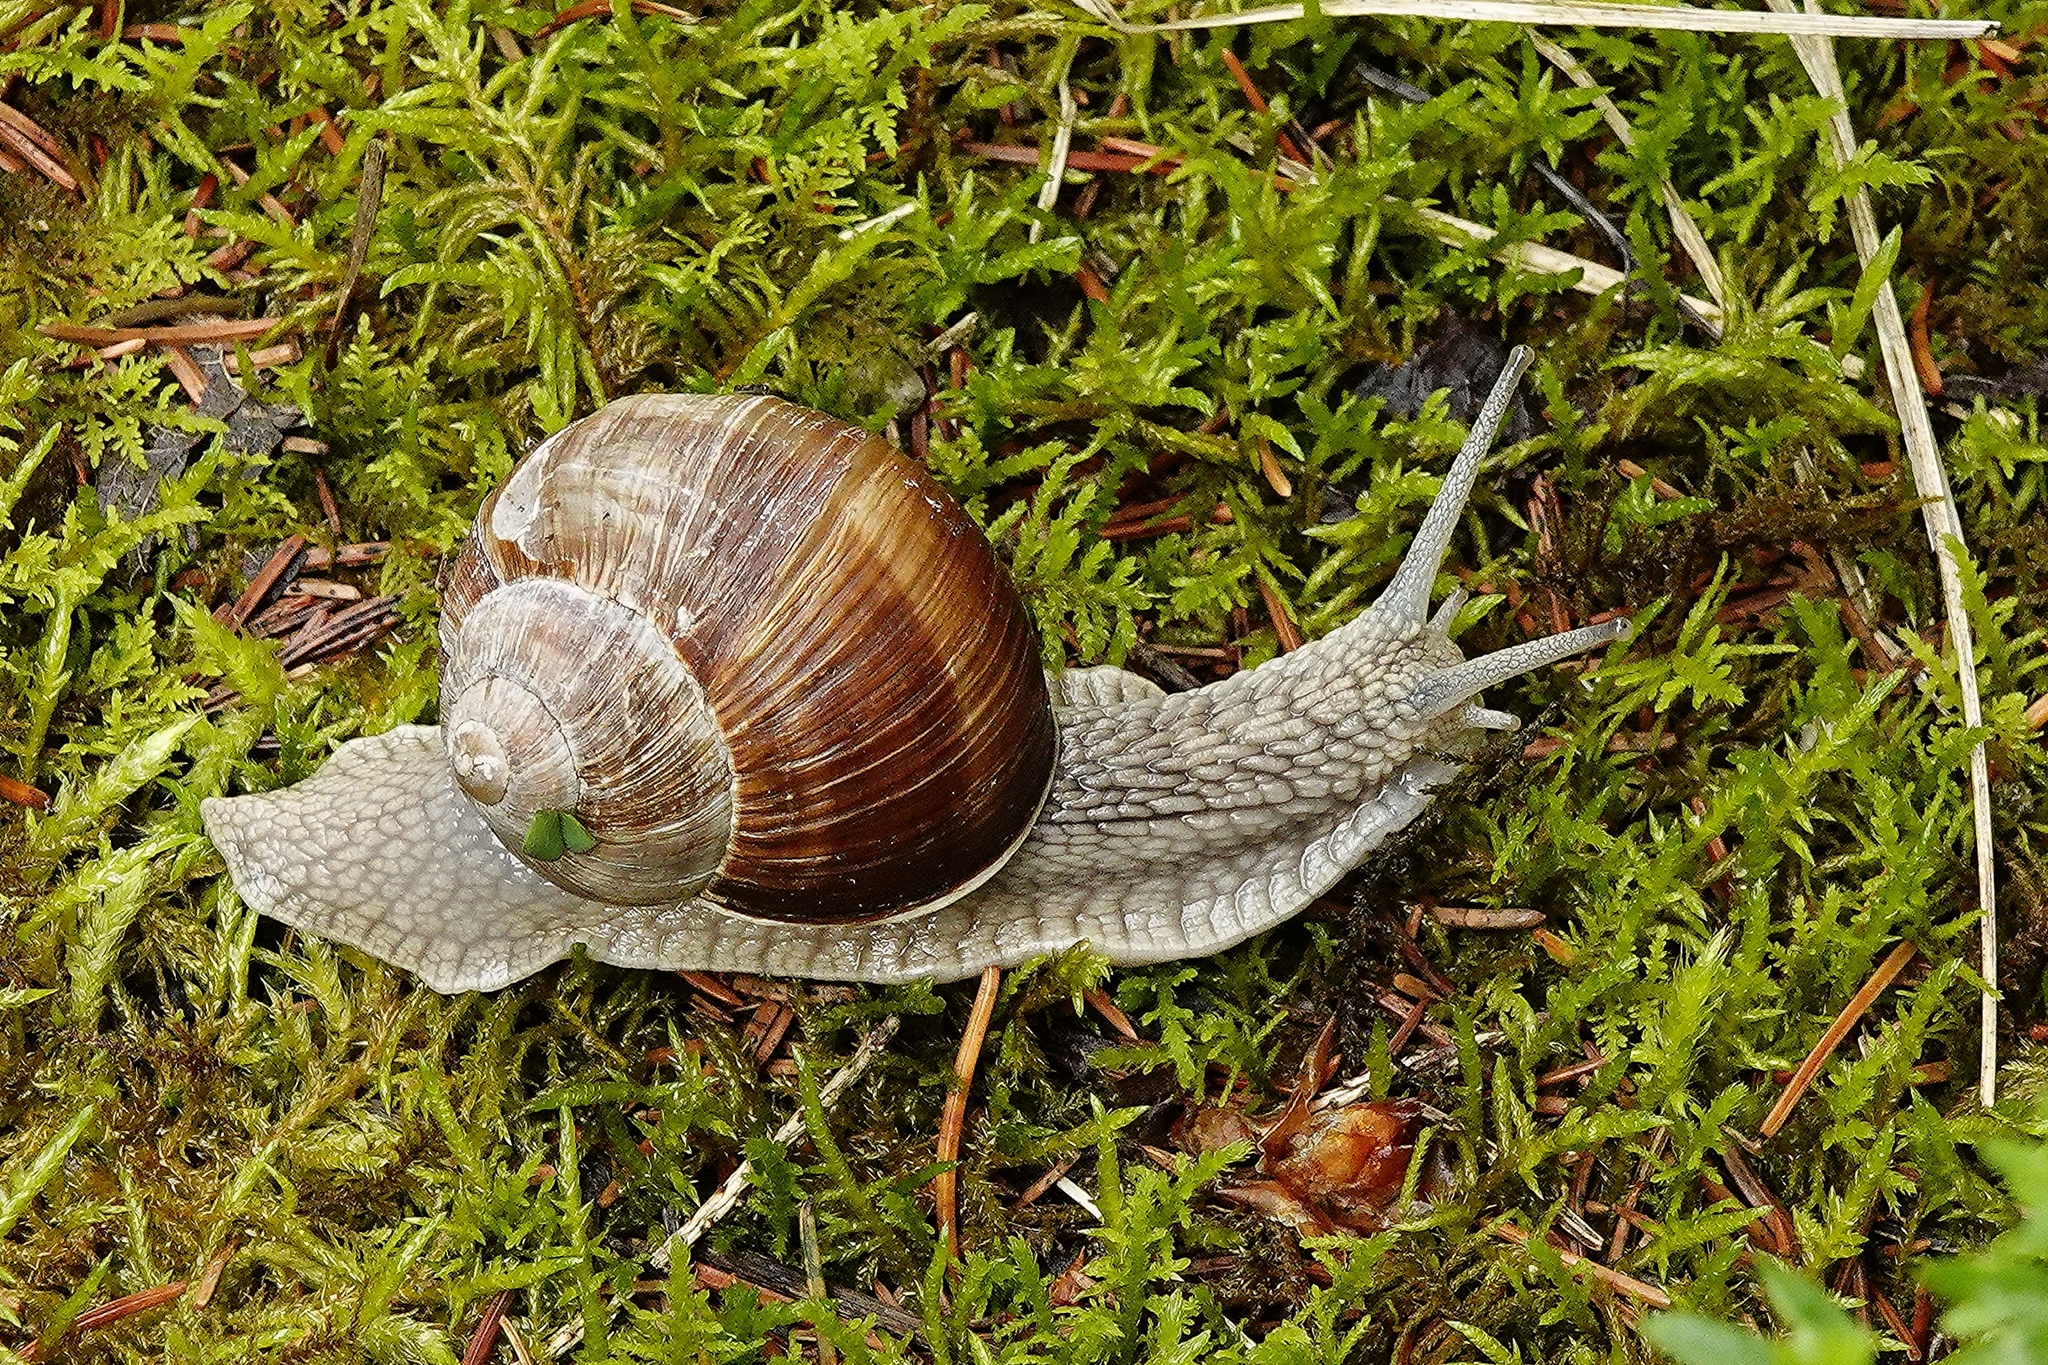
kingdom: Animalia
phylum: Mollusca
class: Gastropoda
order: Stylommatophora
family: Helicidae
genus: Helix
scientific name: Helix pomatia
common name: Roman snail
